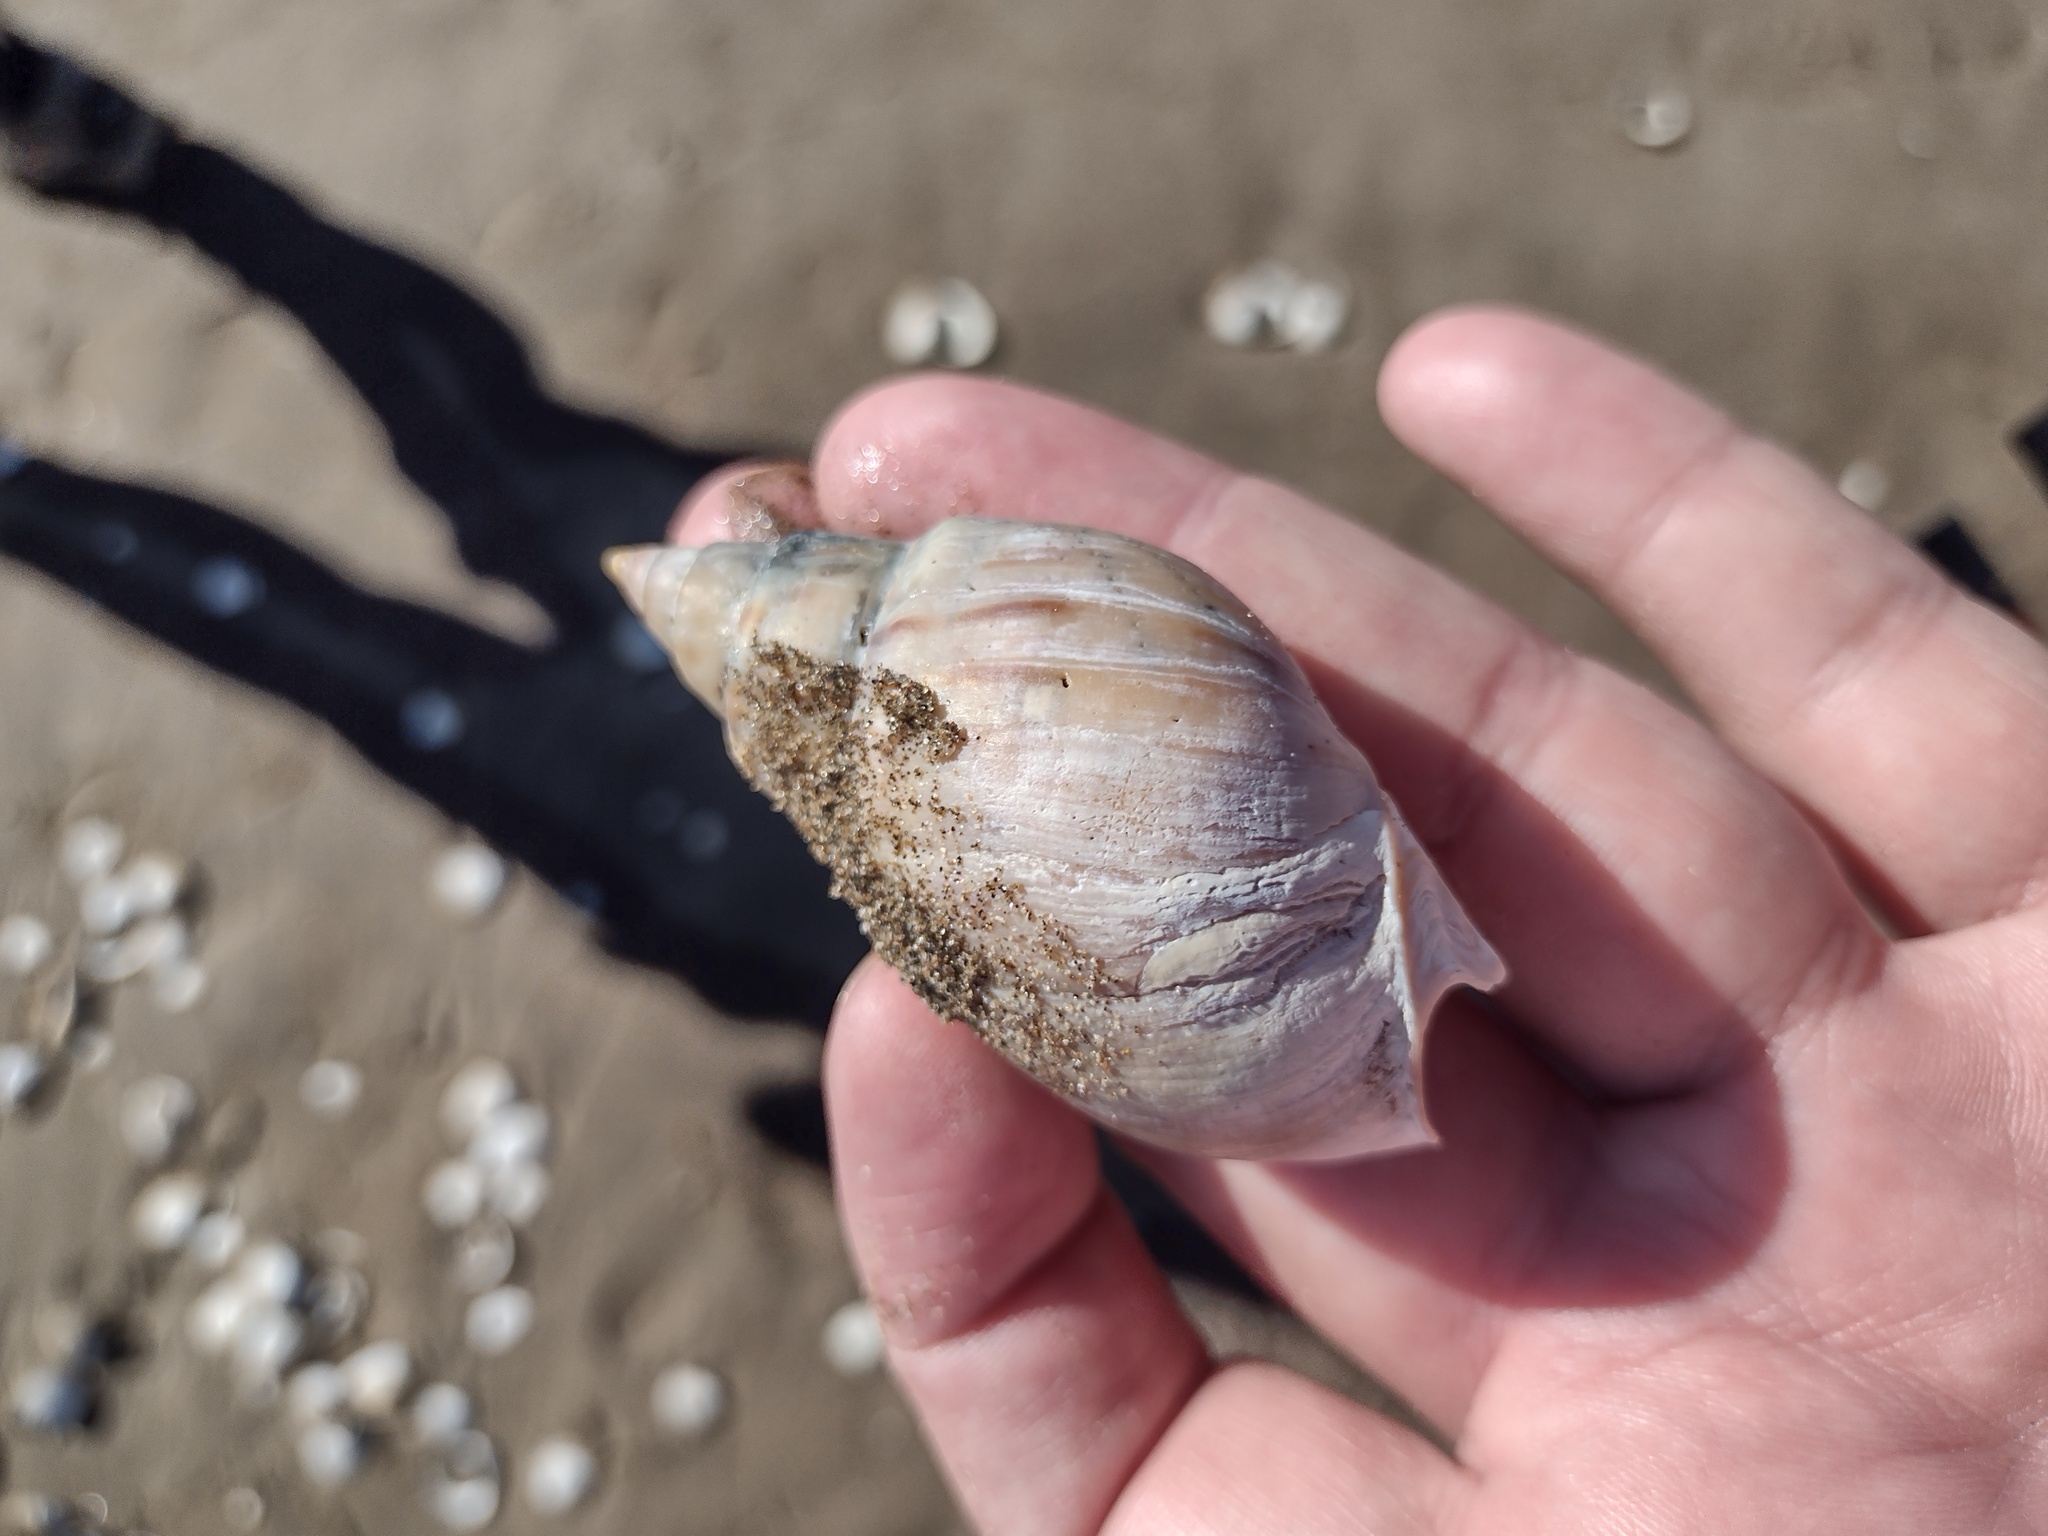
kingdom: Animalia
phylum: Mollusca
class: Gastropoda
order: Neogastropoda
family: Buccinanopsidae
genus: Buccinanops
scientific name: Buccinanops cochlidium
